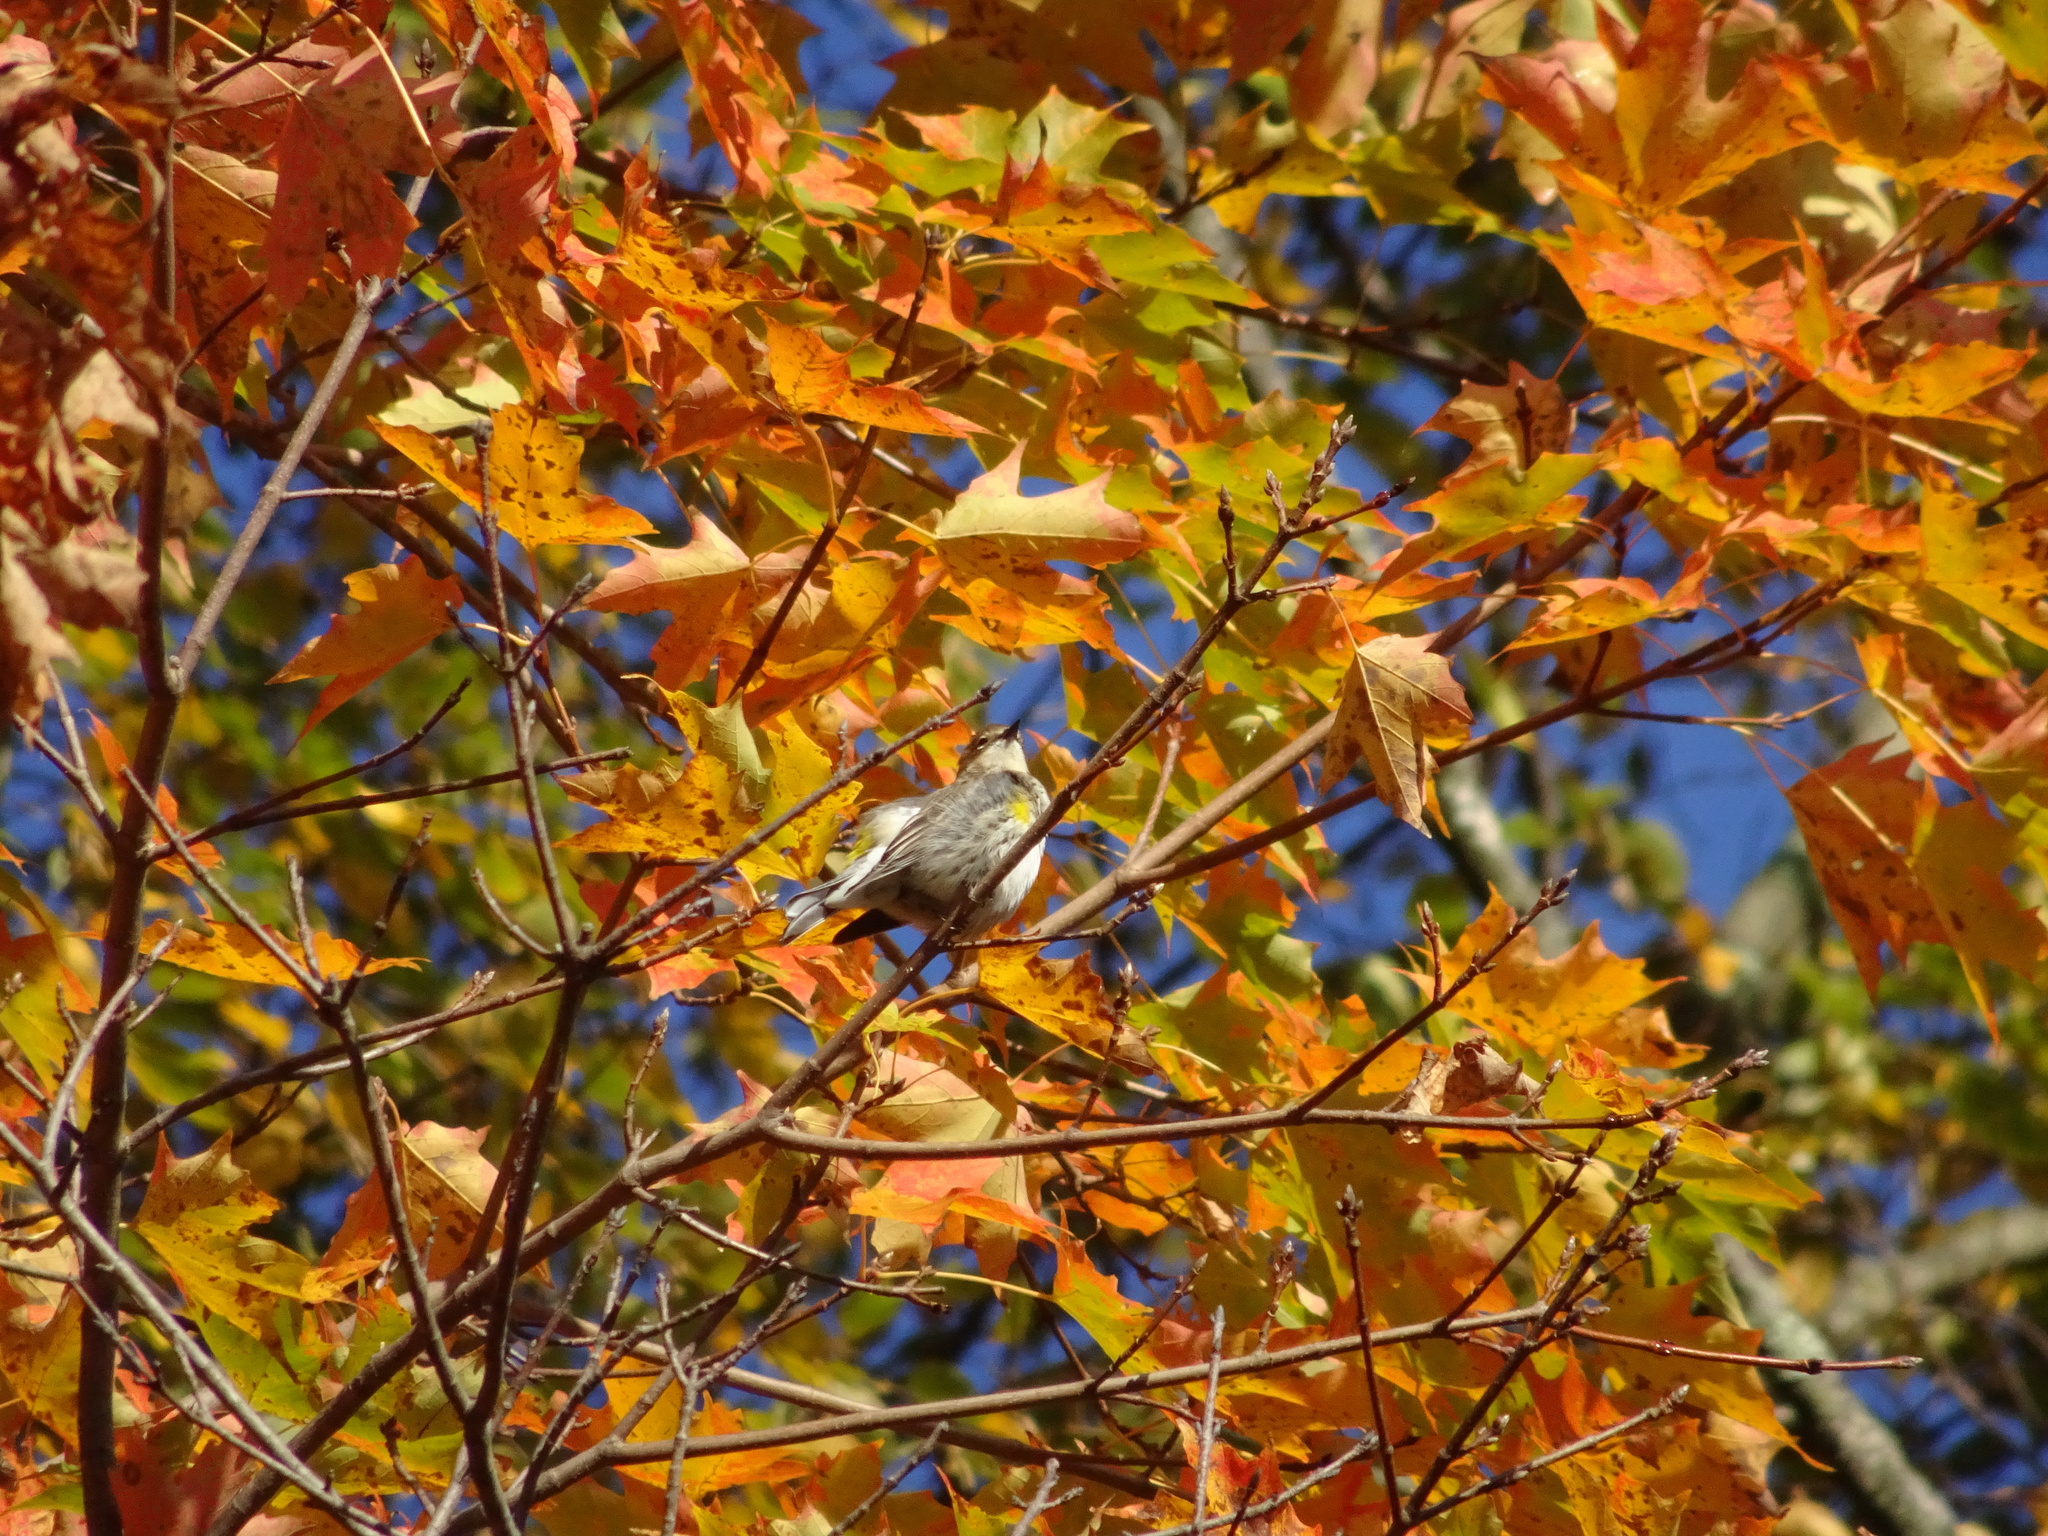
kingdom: Animalia
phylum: Chordata
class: Aves
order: Passeriformes
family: Parulidae
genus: Setophaga
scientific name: Setophaga coronata
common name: Myrtle warbler
